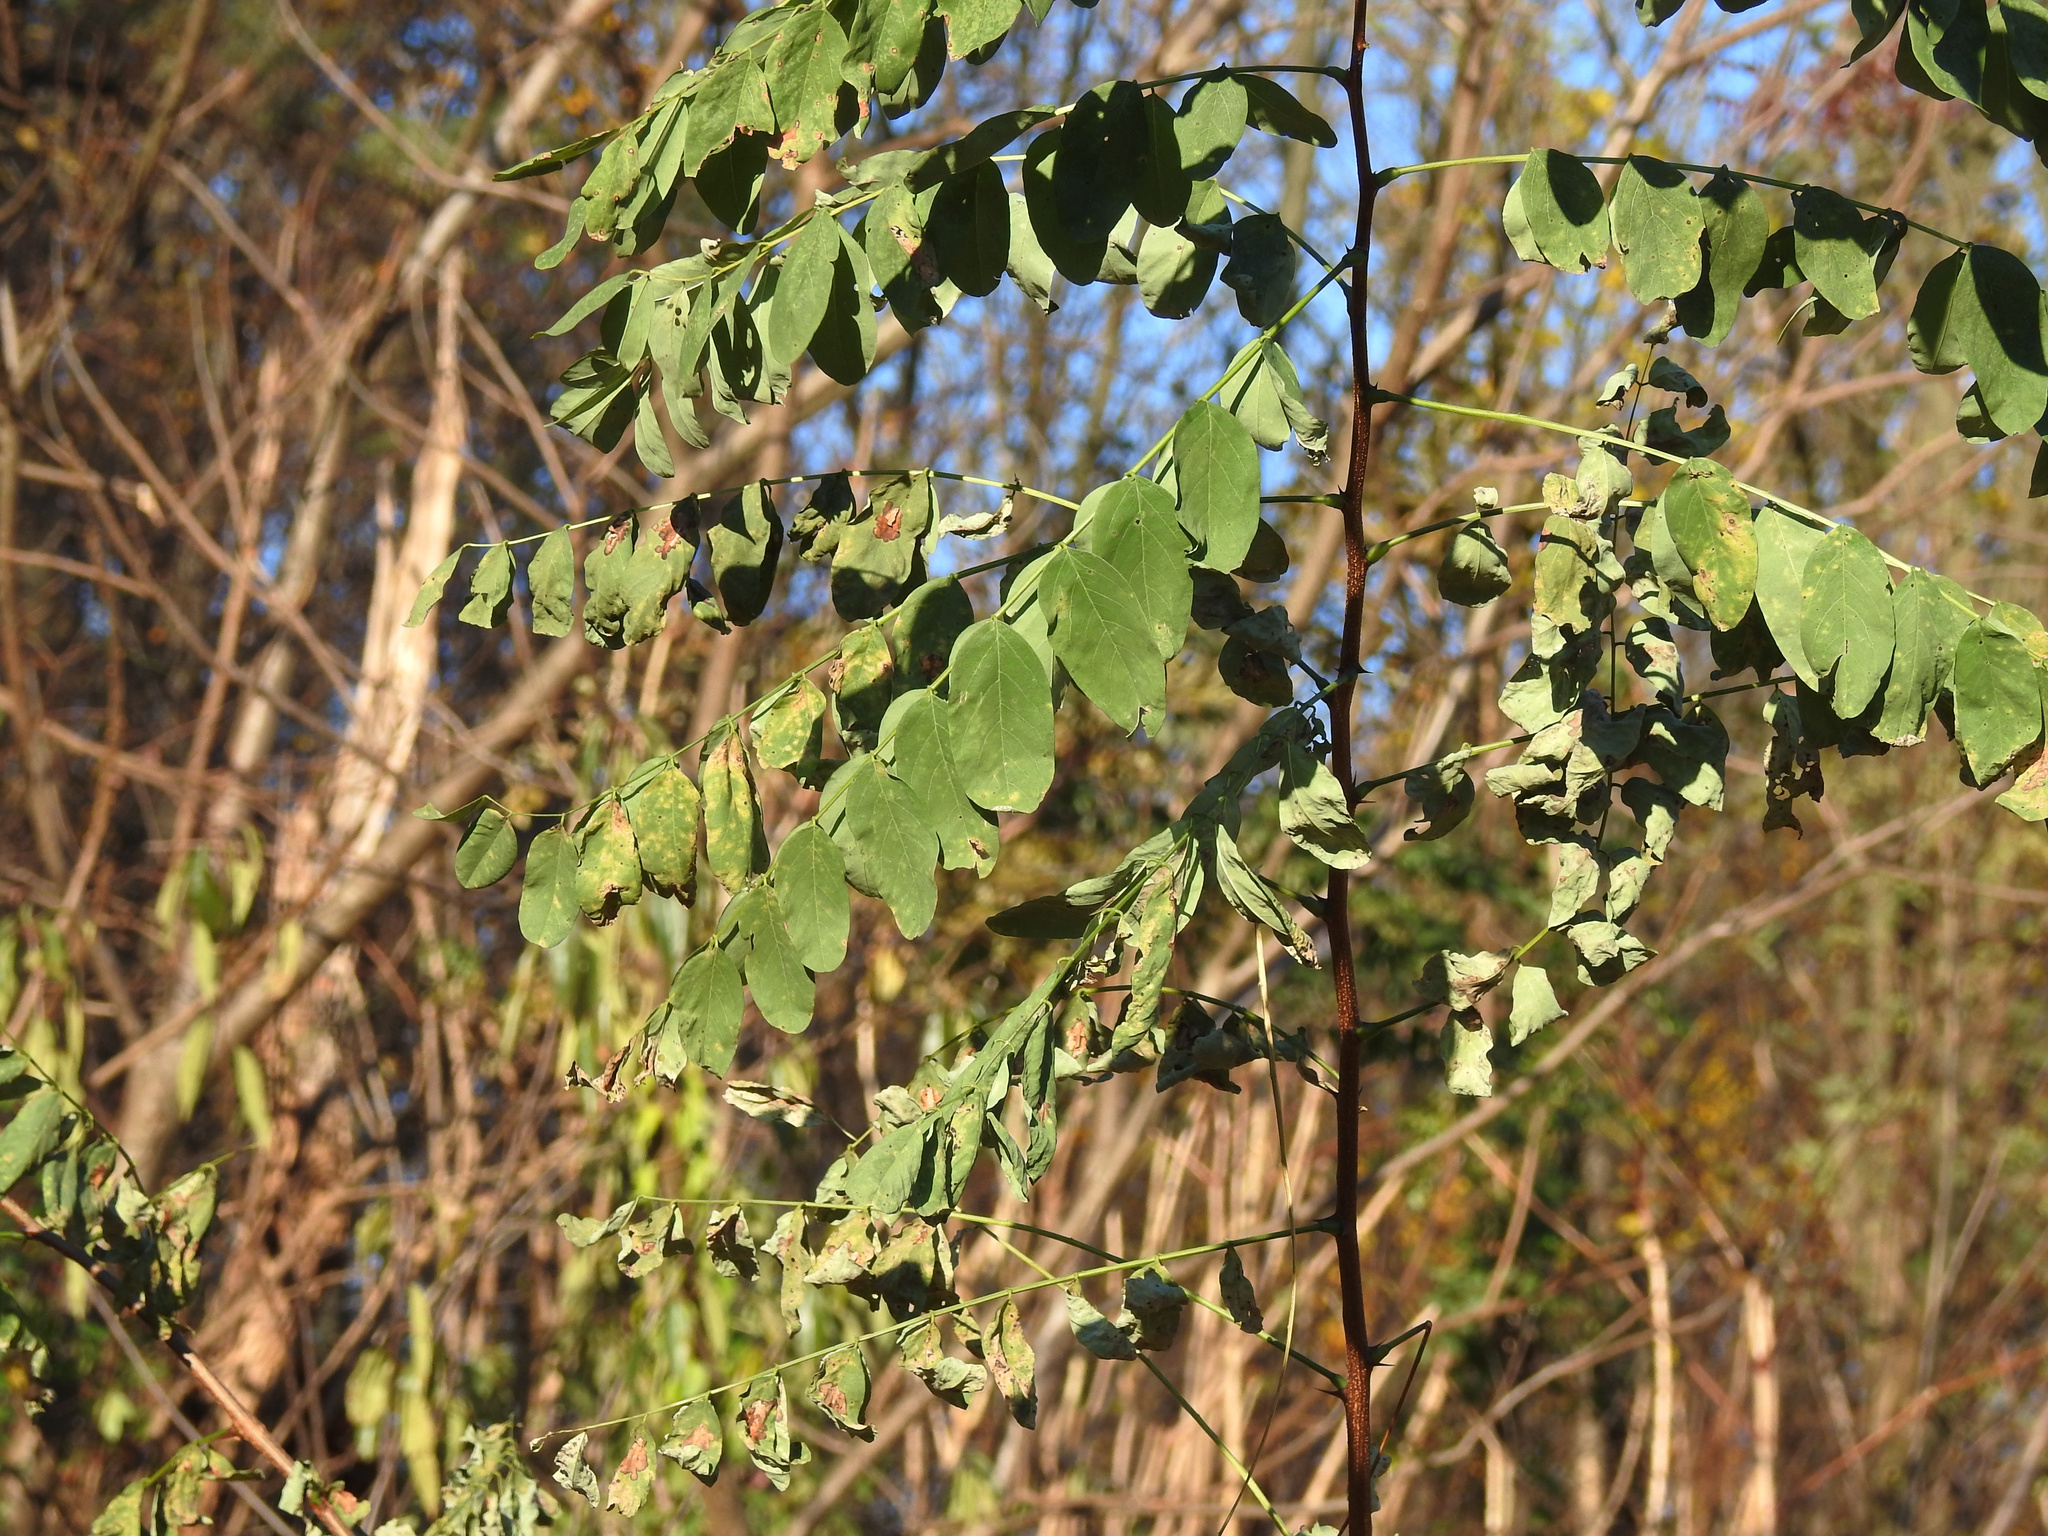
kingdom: Plantae
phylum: Tracheophyta
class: Magnoliopsida
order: Fabales
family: Fabaceae
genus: Robinia
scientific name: Robinia pseudoacacia
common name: Black locust
